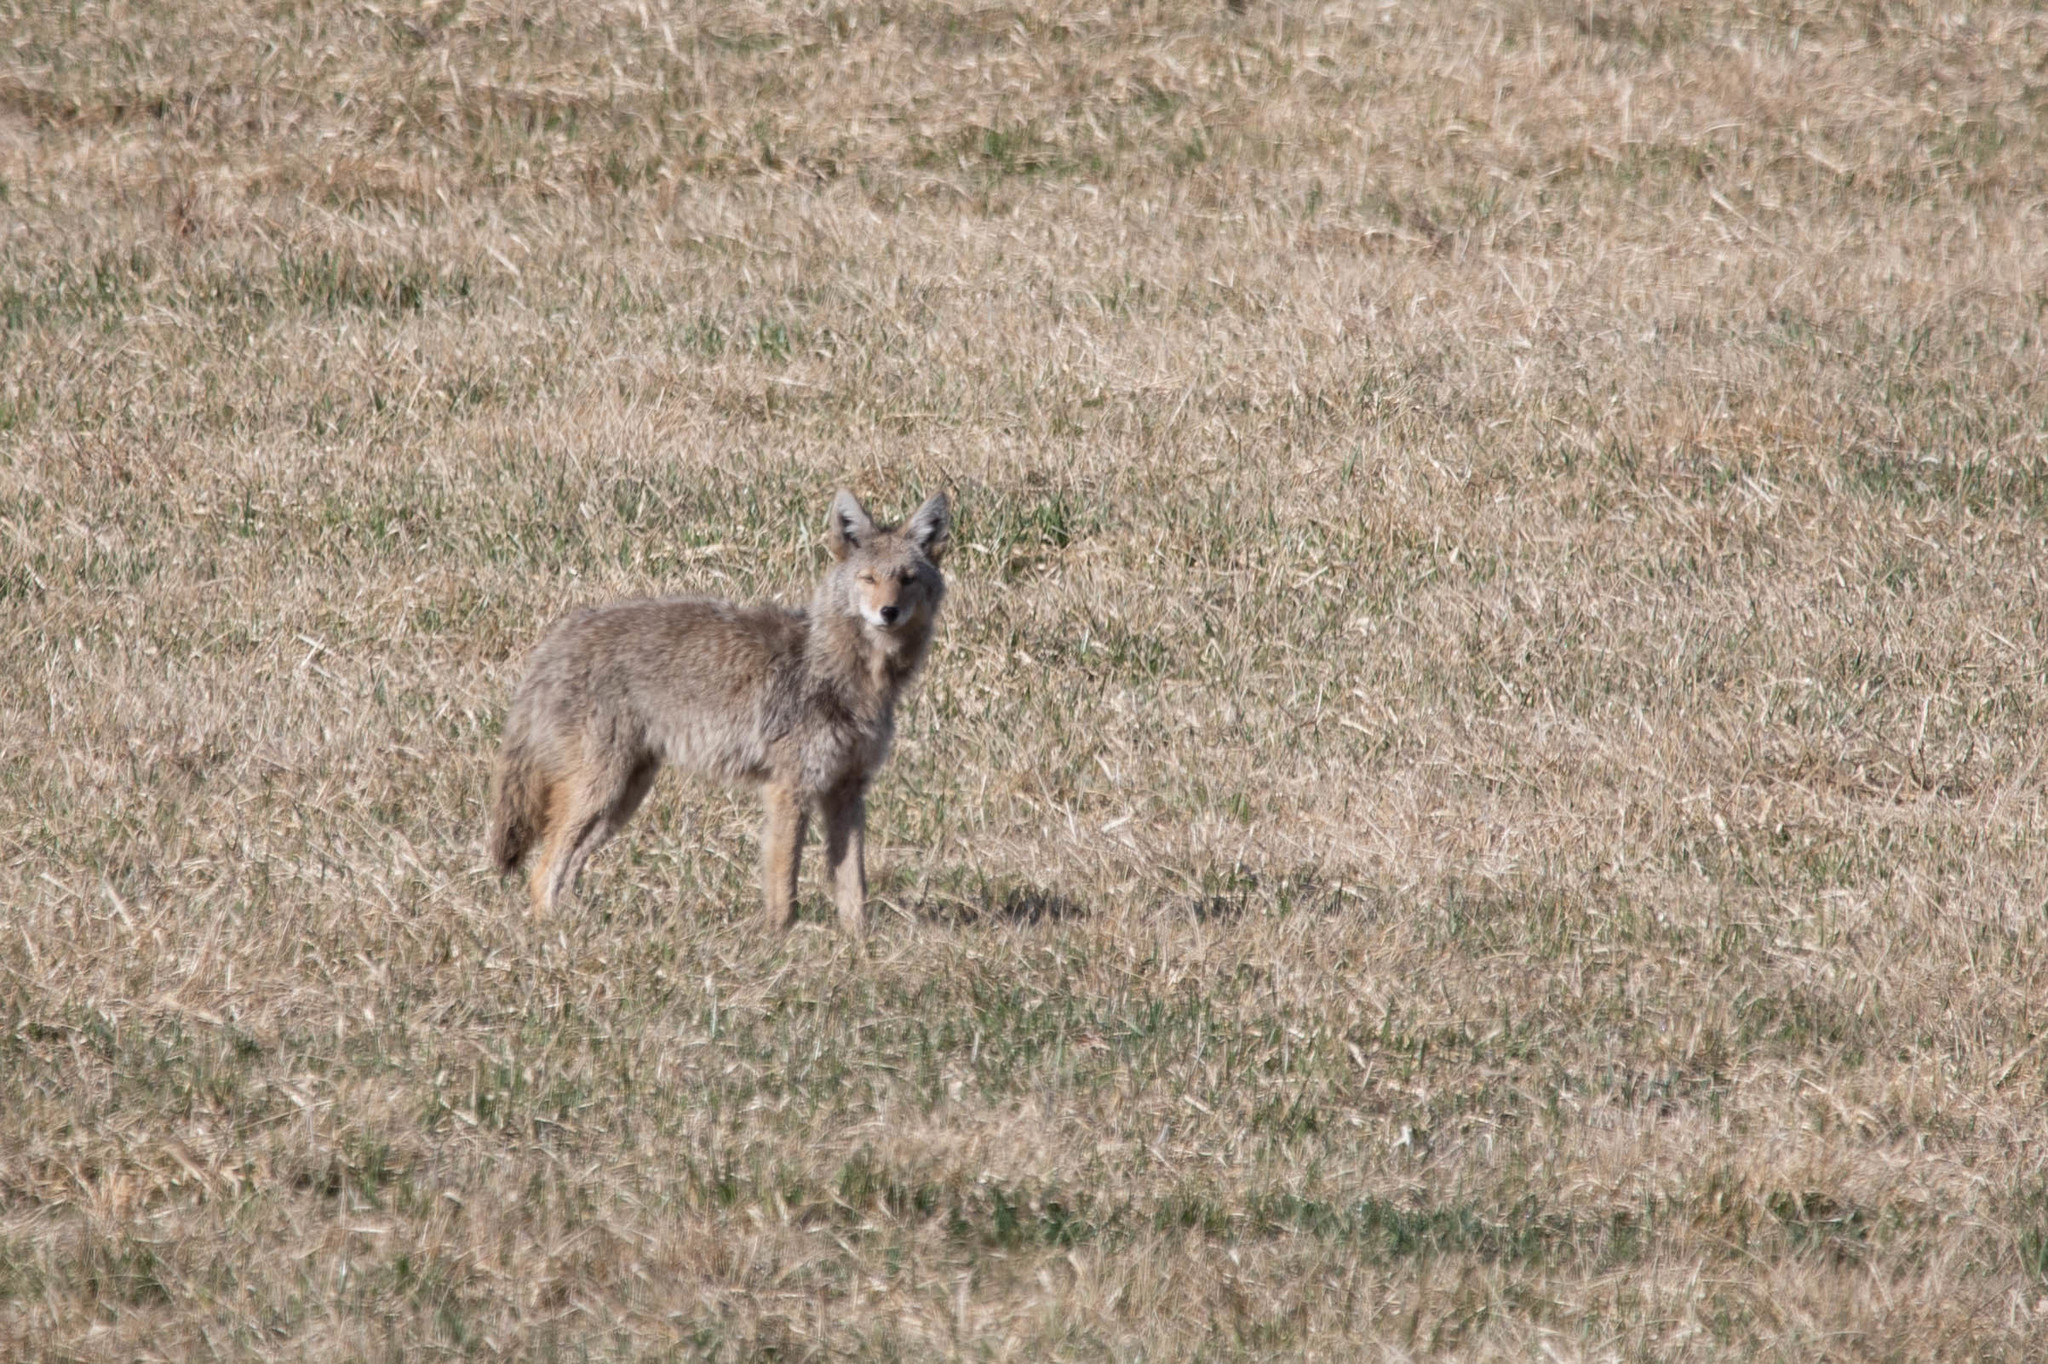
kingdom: Animalia
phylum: Chordata
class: Mammalia
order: Carnivora
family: Canidae
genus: Canis
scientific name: Canis latrans
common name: Coyote
